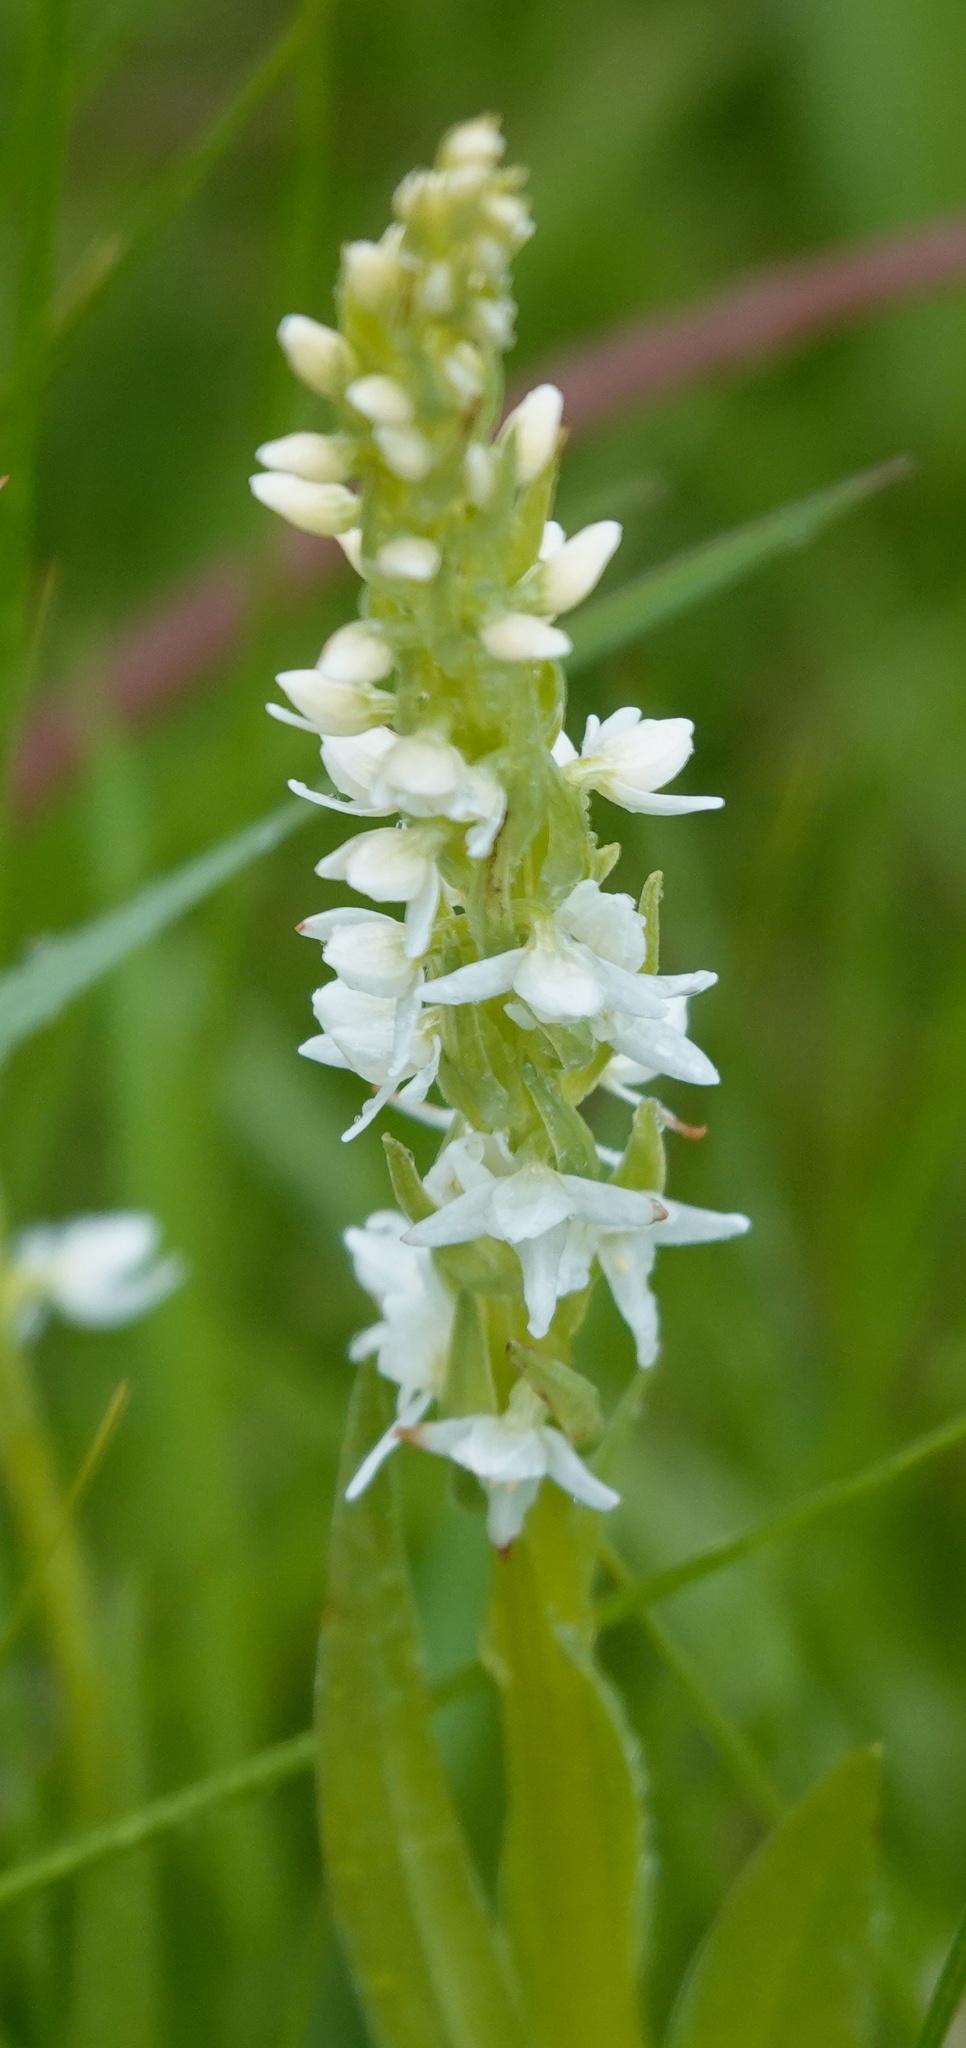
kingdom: Plantae
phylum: Tracheophyta
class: Liliopsida
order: Asparagales
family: Orchidaceae
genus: Platanthera
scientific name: Platanthera dilatata
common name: Bog candles
